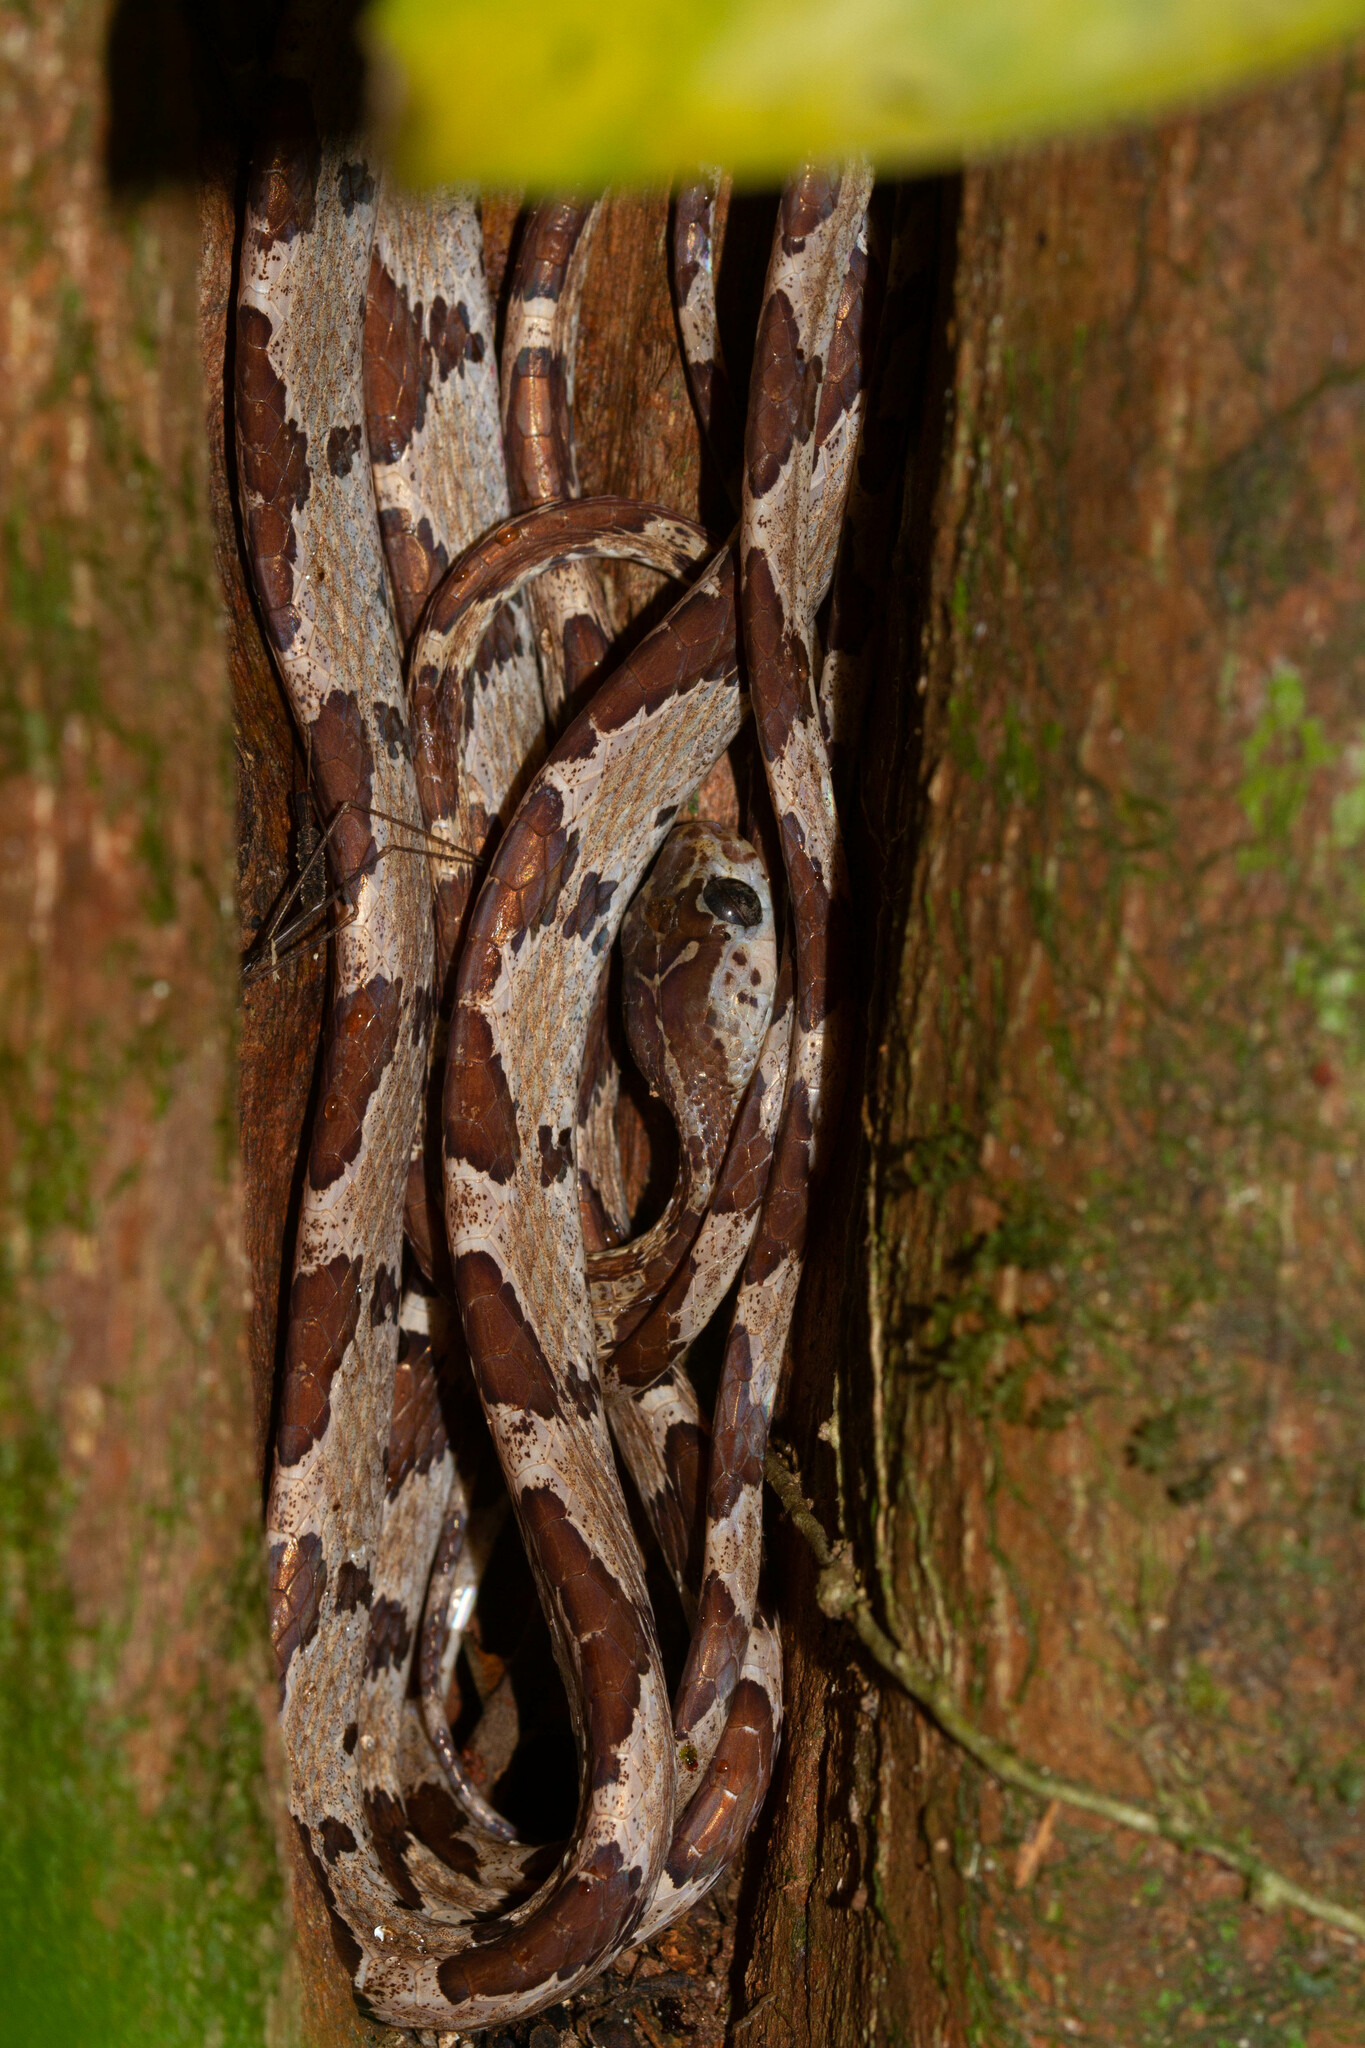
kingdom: Animalia
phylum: Chordata
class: Squamata
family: Colubridae
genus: Imantodes
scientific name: Imantodes cenchoa
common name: Blunthead tree snake
